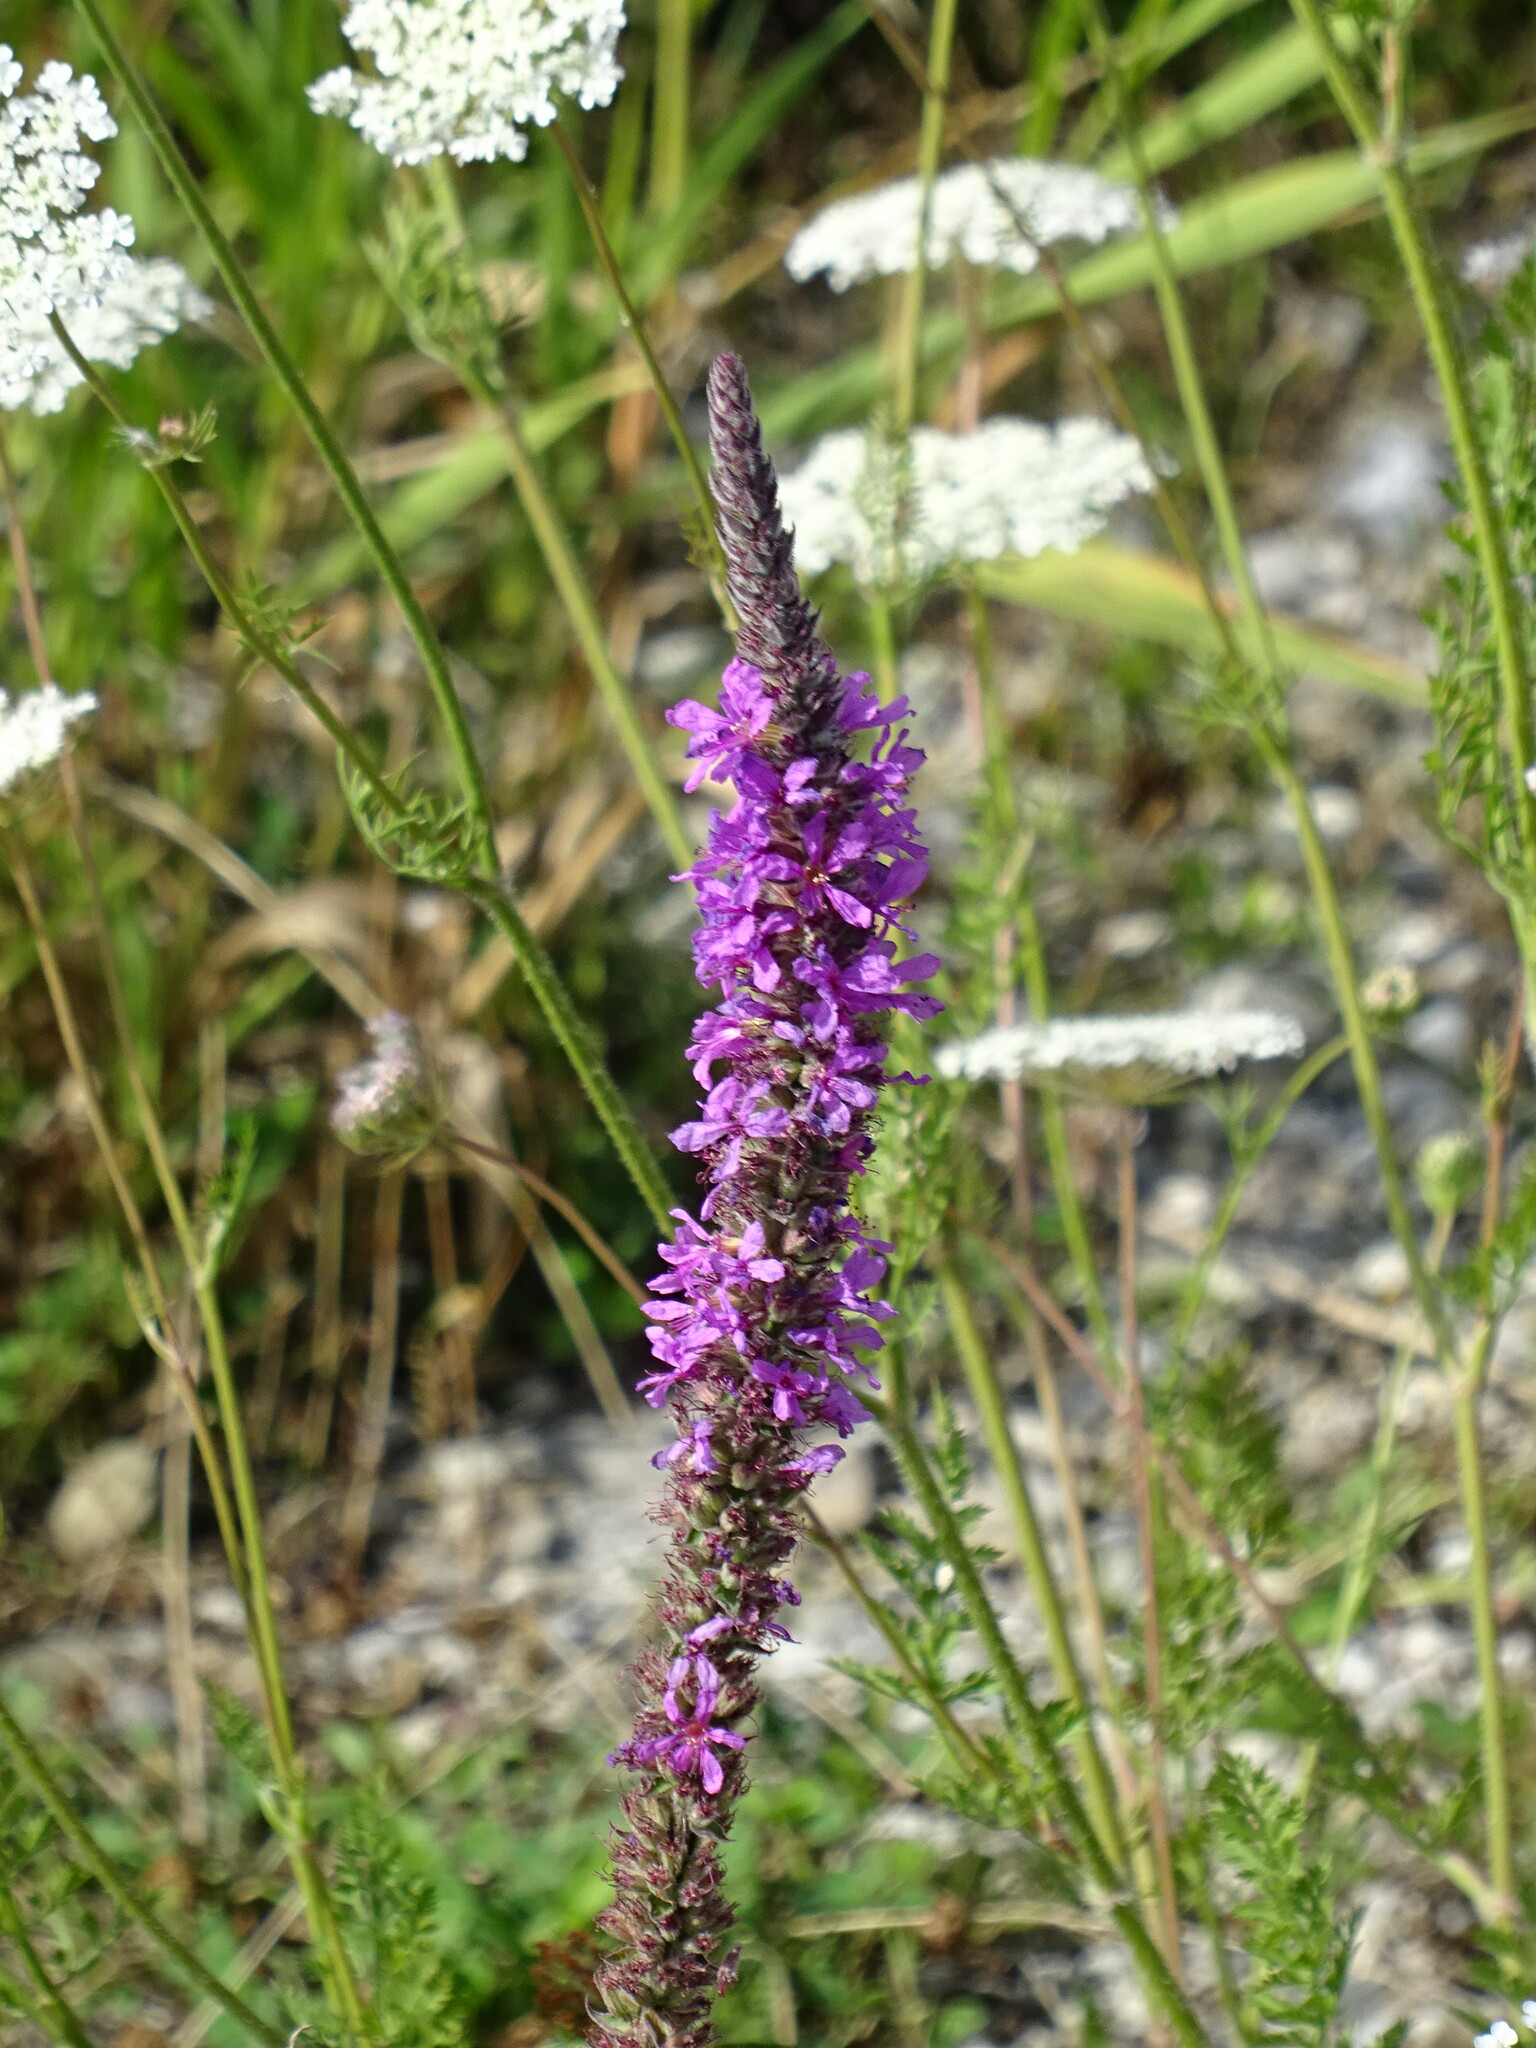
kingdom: Plantae
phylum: Tracheophyta
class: Magnoliopsida
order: Myrtales
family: Lythraceae
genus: Lythrum
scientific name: Lythrum salicaria
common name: Purple loosestrife
